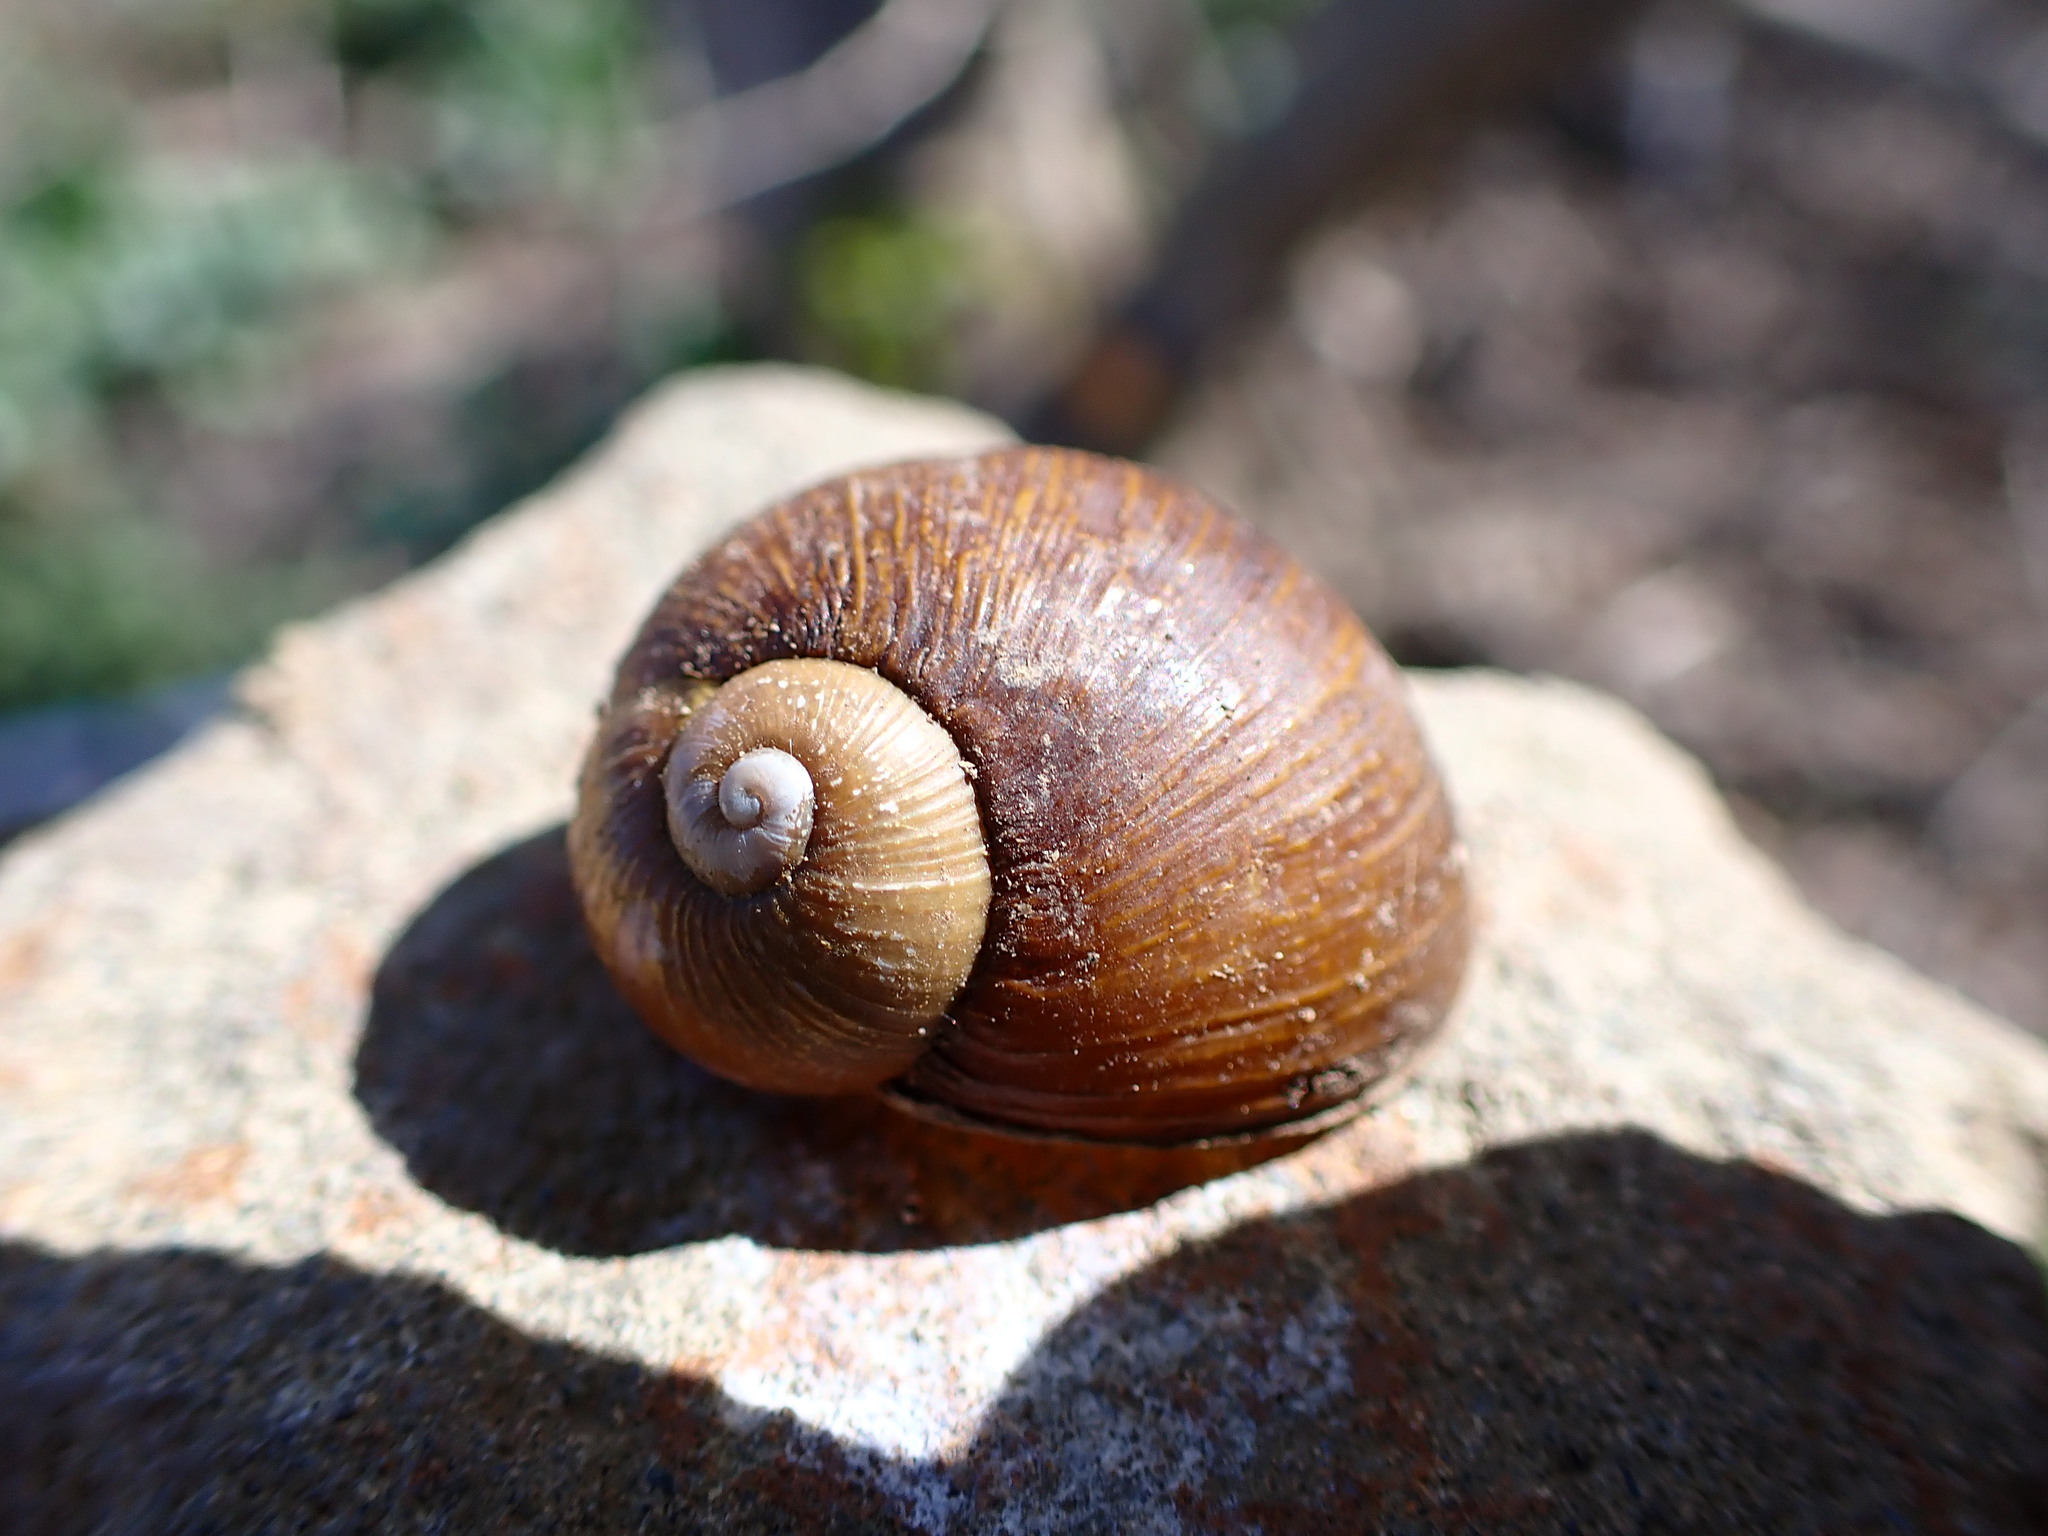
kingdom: Animalia
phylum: Mollusca
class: Gastropoda
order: Stylommatophora
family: Helicidae
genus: Cantareus
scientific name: Cantareus apertus
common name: Green gardensnail
